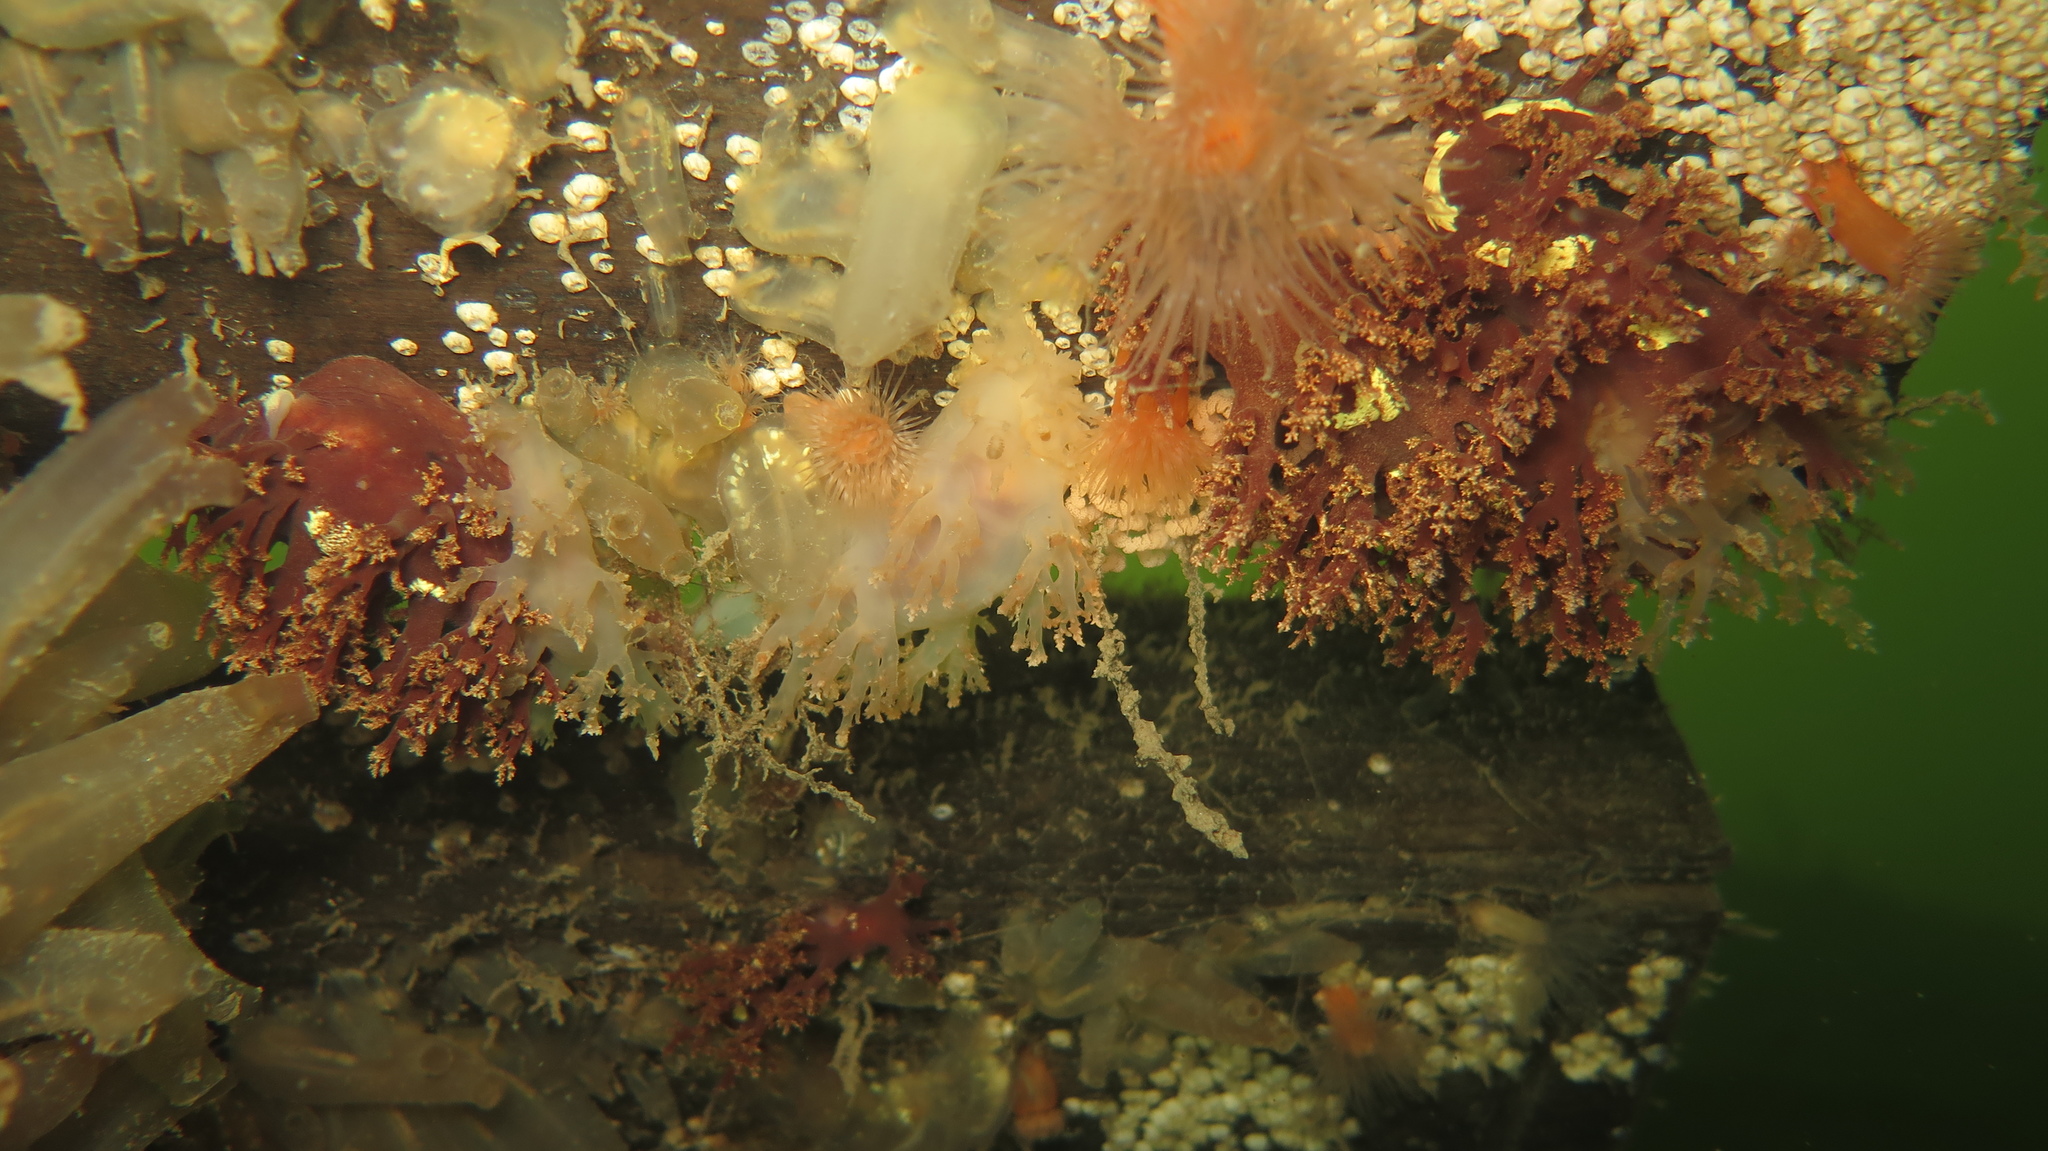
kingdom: Animalia
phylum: Mollusca
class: Gastropoda
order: Nudibranchia
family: Dendronotidae
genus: Dendronotus
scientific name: Dendronotus frondosus
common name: Bushy-backed nudibranch
